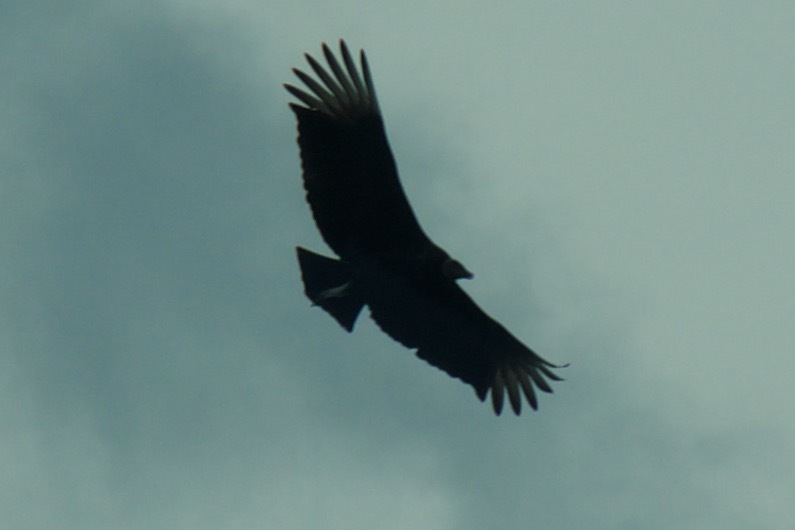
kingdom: Animalia
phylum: Chordata
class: Aves
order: Accipitriformes
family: Cathartidae
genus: Coragyps
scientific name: Coragyps atratus
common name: Black vulture
